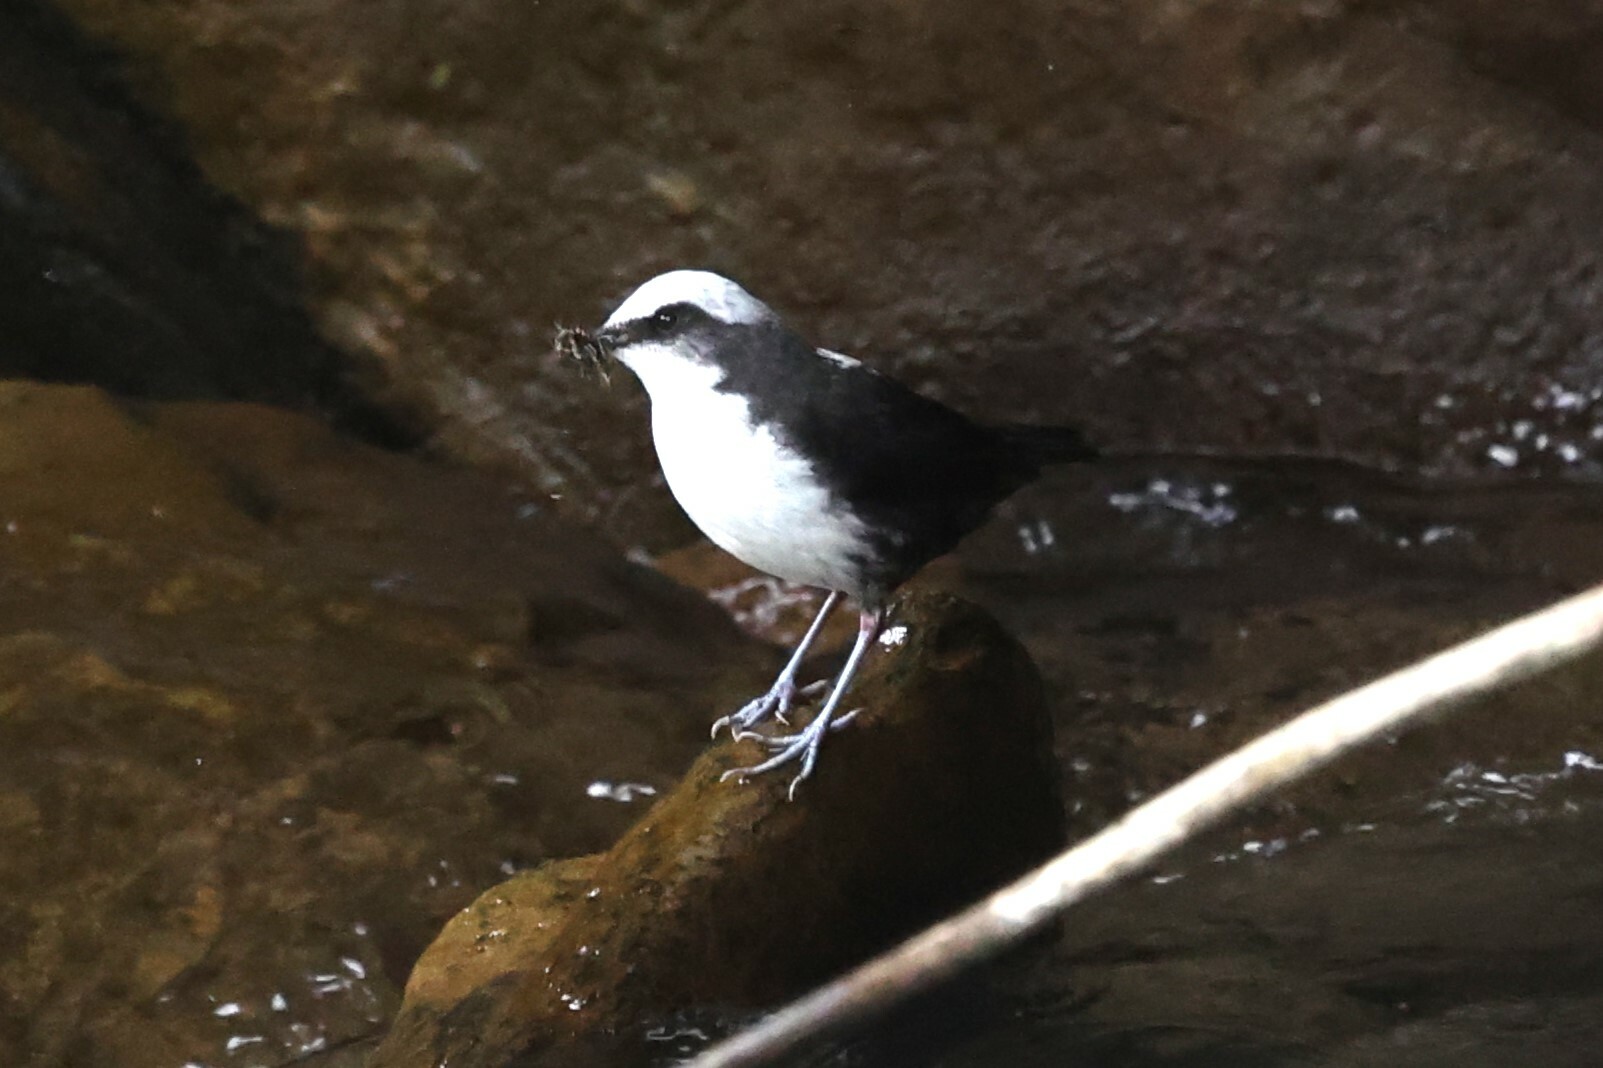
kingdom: Animalia
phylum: Chordata
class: Aves
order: Passeriformes
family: Cinclidae
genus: Cinclus
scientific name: Cinclus leucocephalus
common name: White-capped dipper
